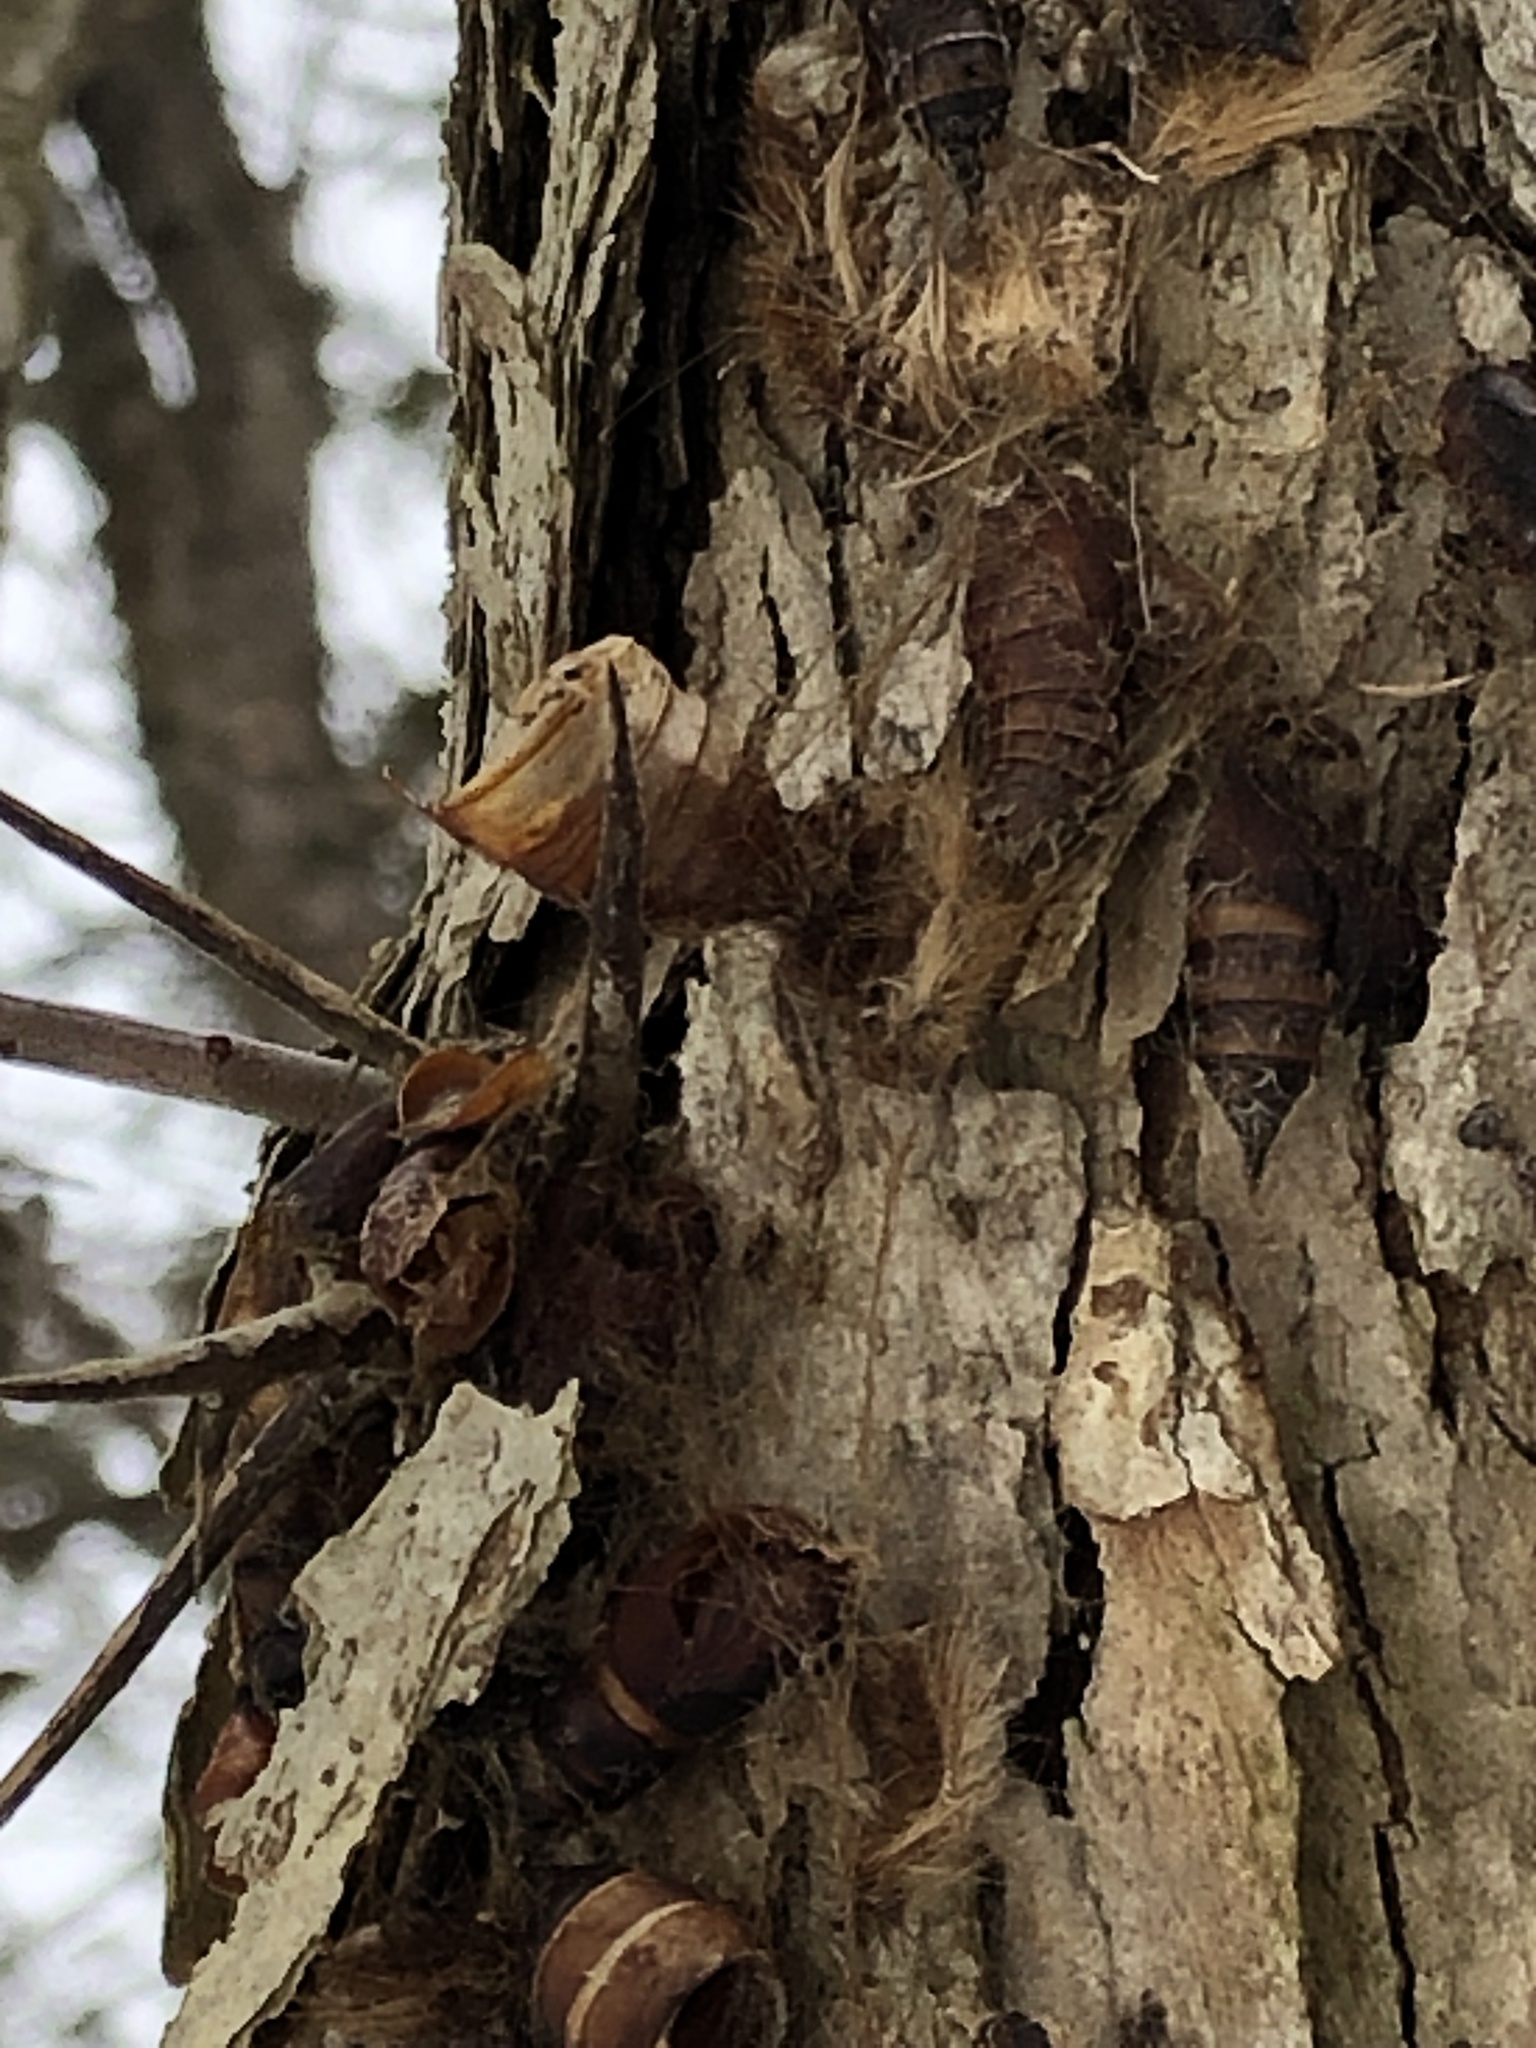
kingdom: Animalia
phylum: Arthropoda
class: Insecta
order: Lepidoptera
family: Erebidae
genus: Lymantria
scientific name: Lymantria dispar
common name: Gypsy moth
